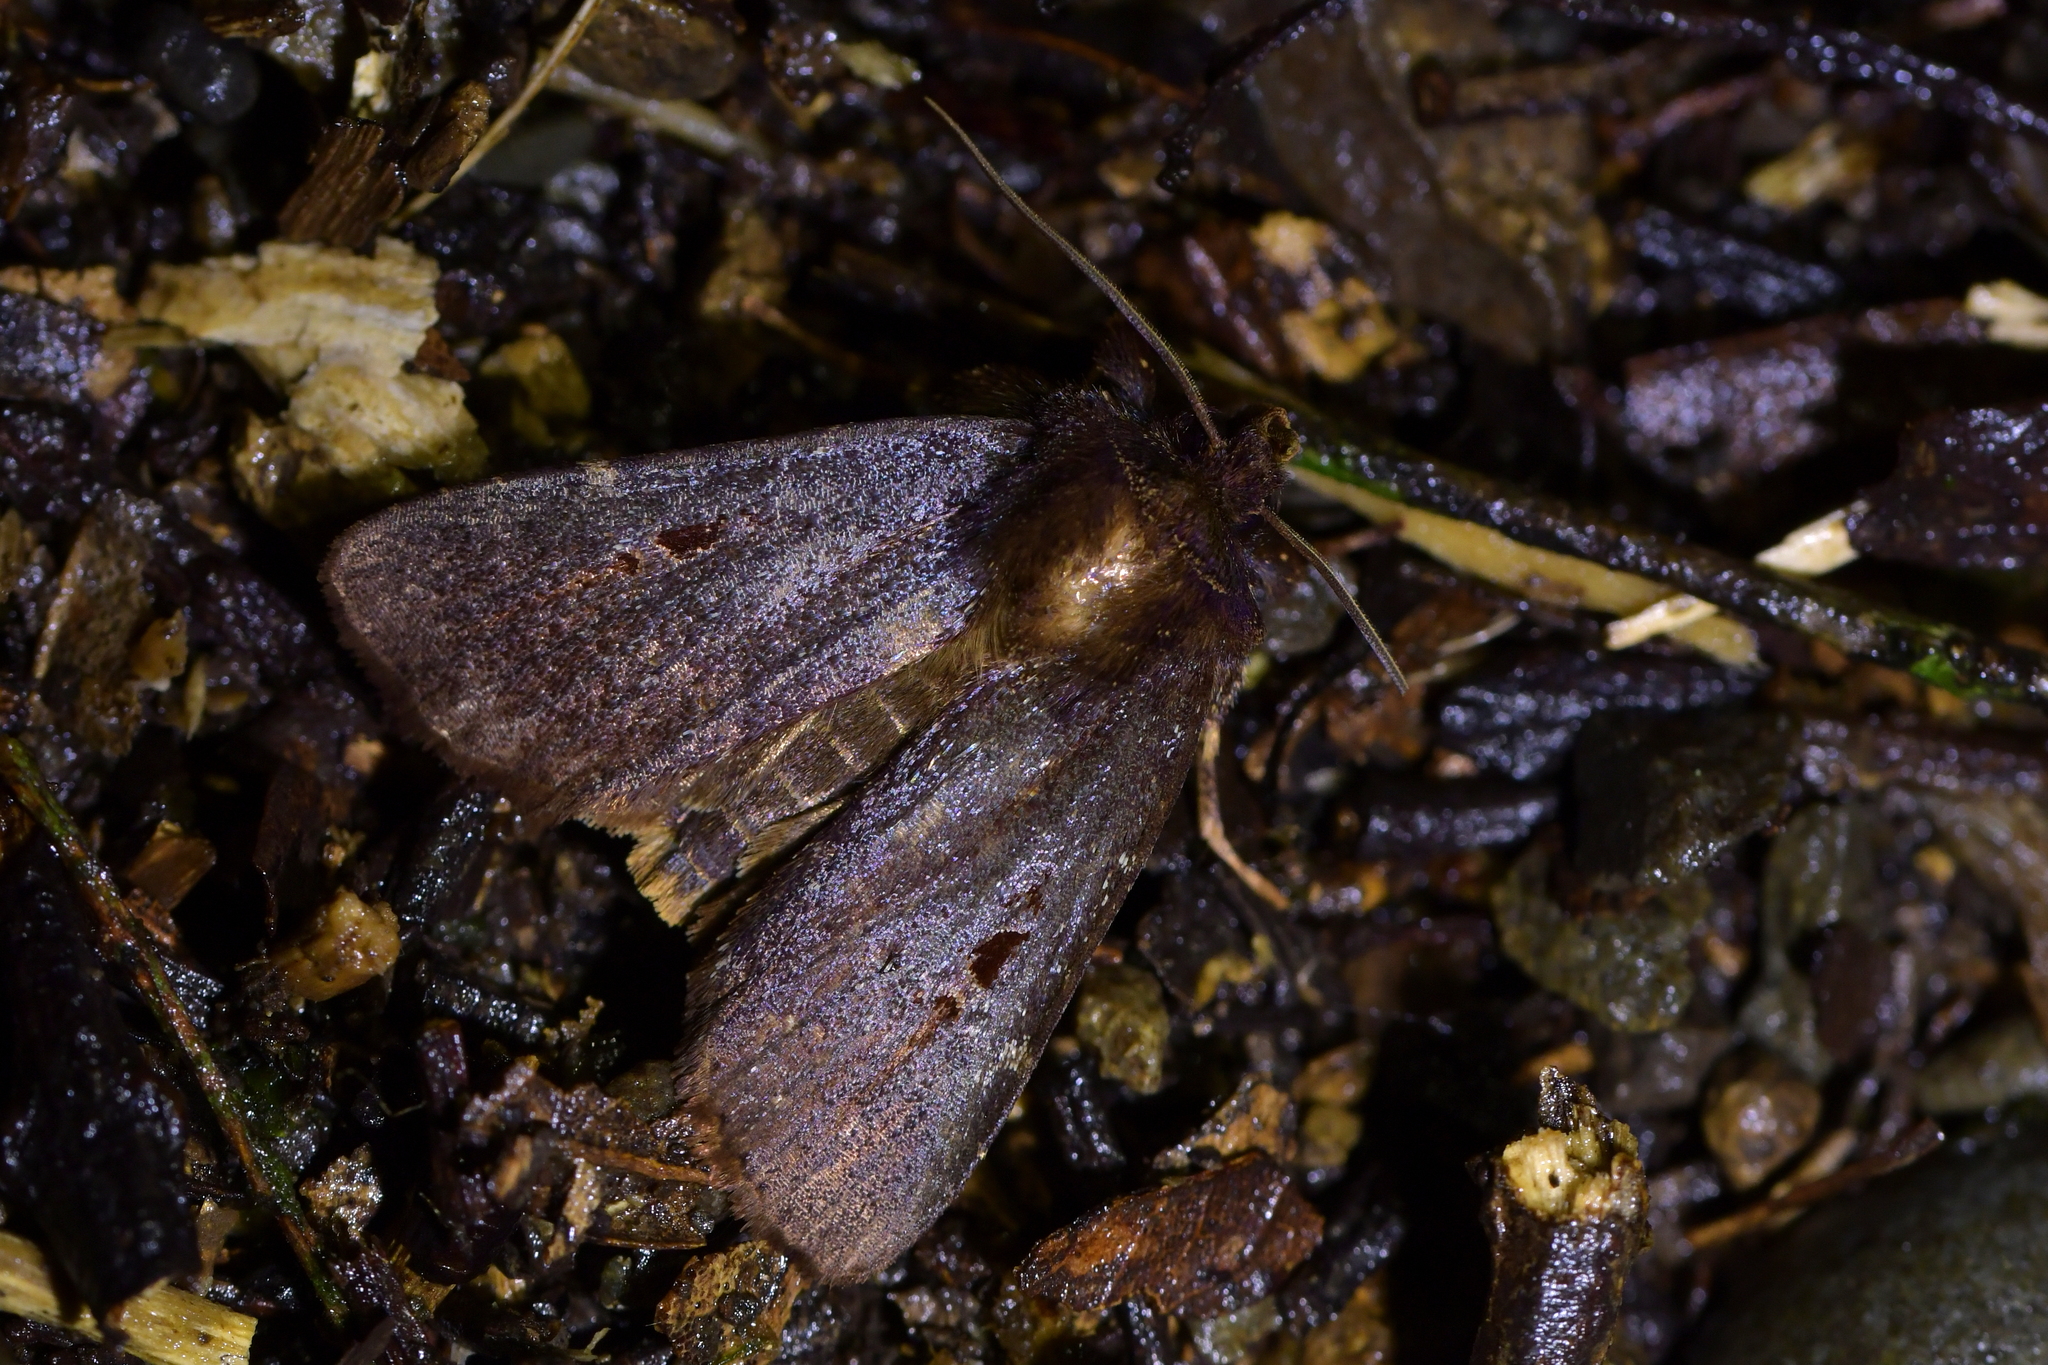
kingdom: Animalia
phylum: Arthropoda
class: Insecta
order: Lepidoptera
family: Noctuidae
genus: Austramathes
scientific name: Austramathes purpurea
